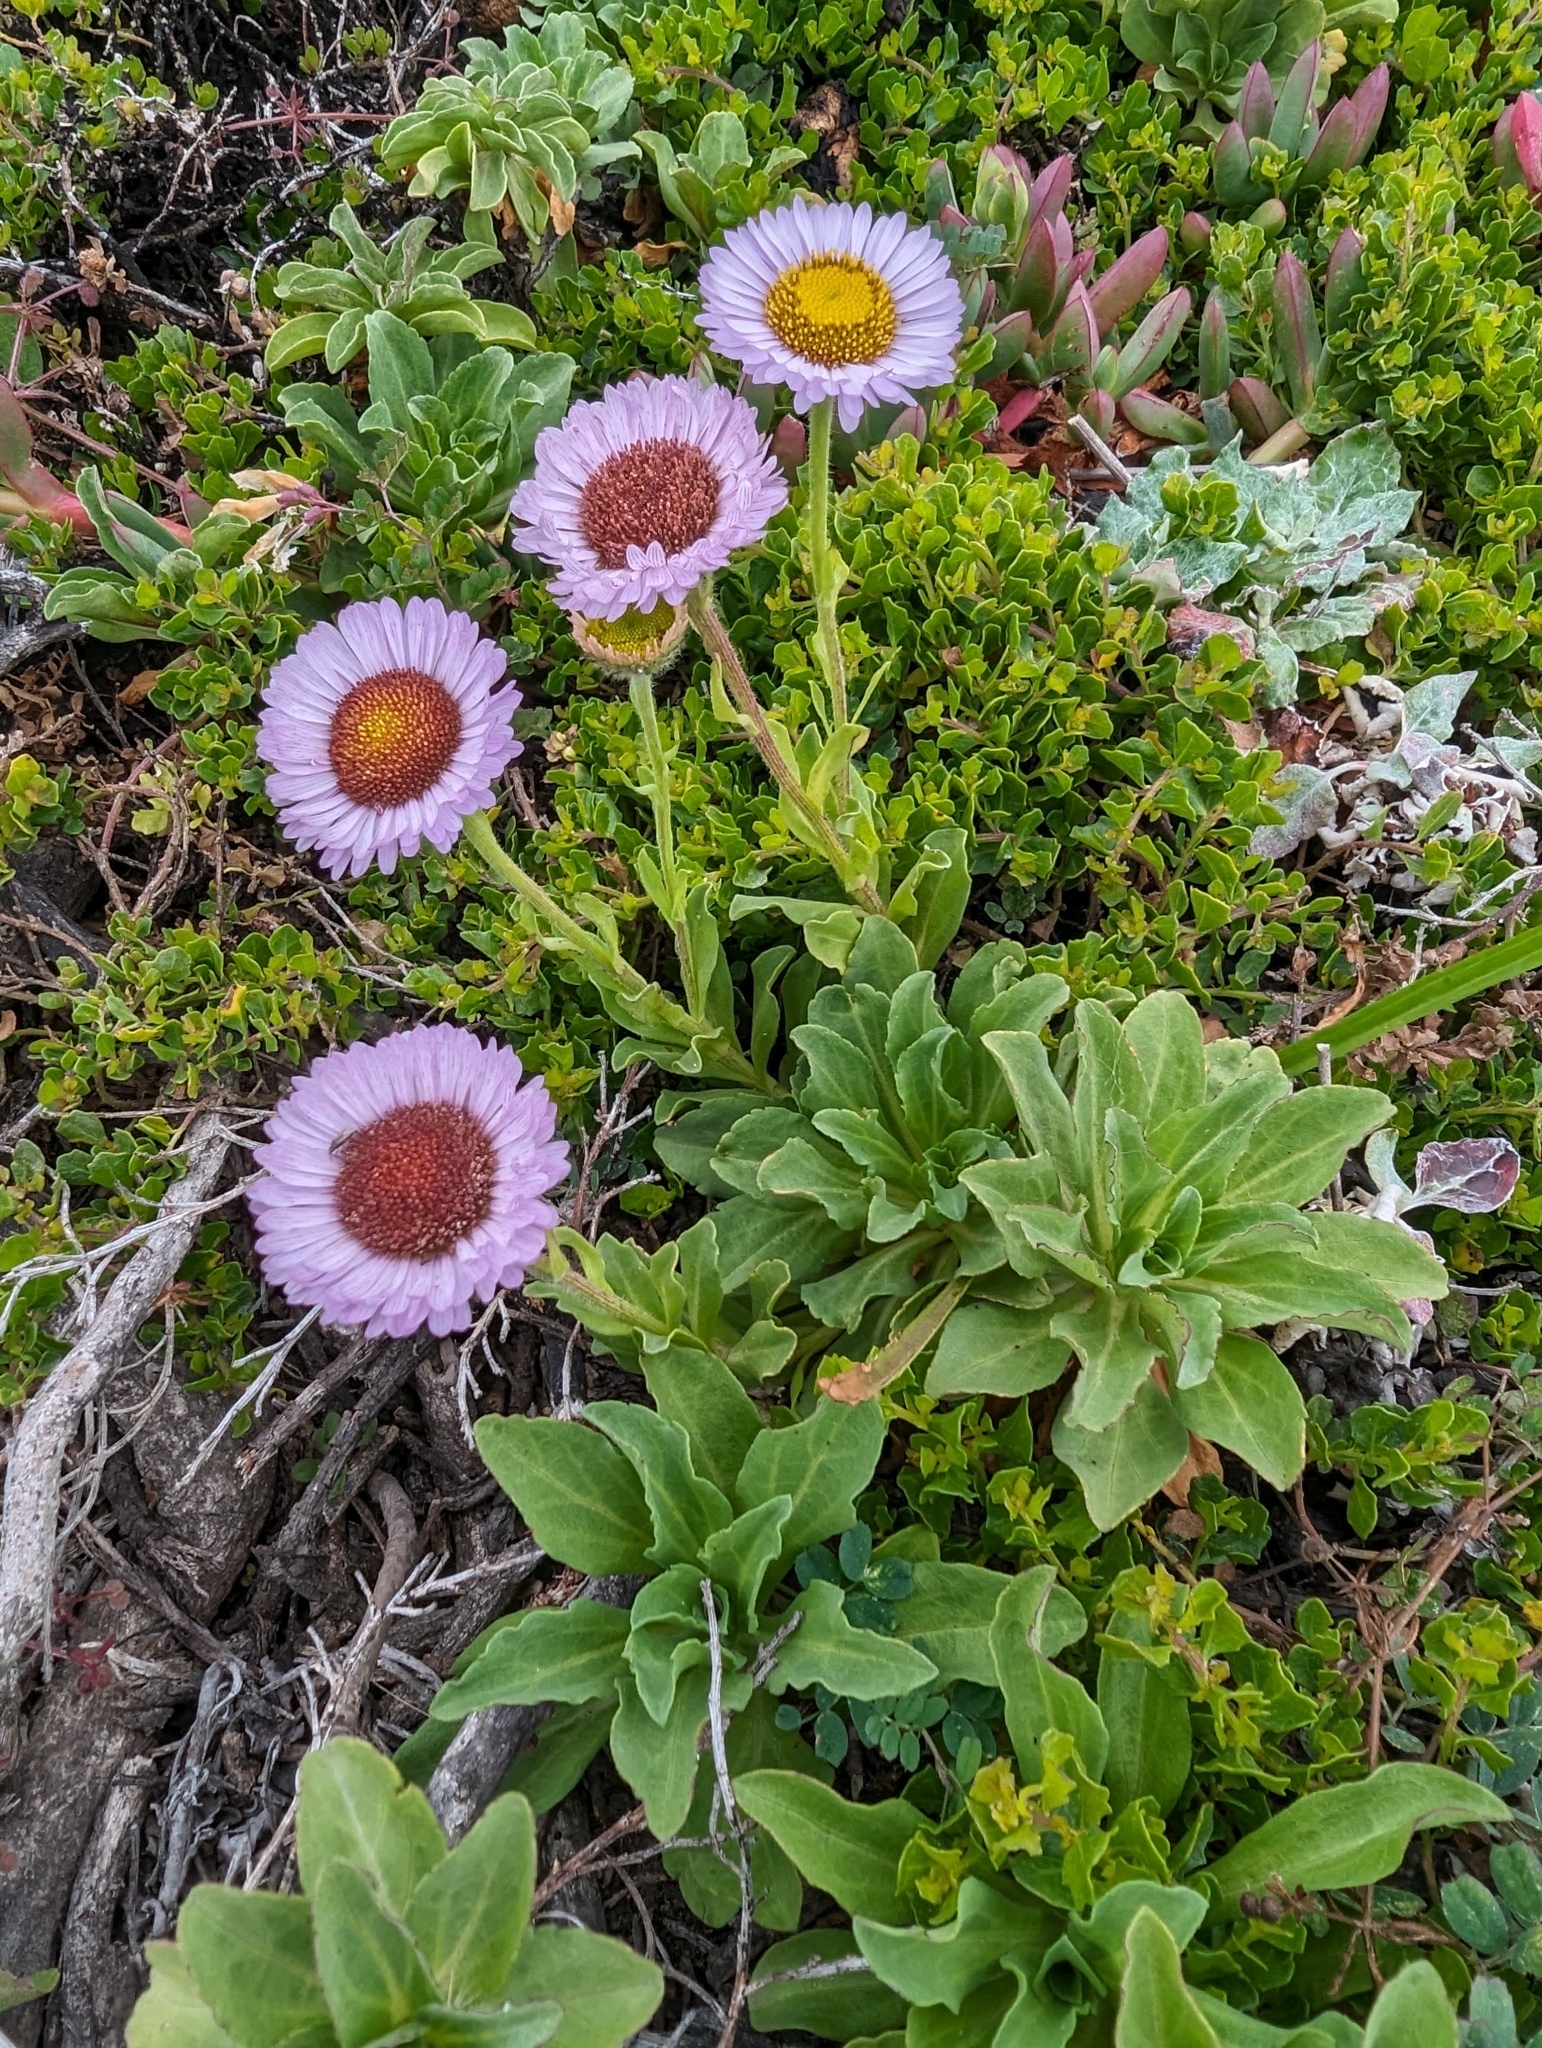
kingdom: Plantae
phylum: Tracheophyta
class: Magnoliopsida
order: Asterales
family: Asteraceae
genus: Erigeron
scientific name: Erigeron glaucus
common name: Seaside daisy
